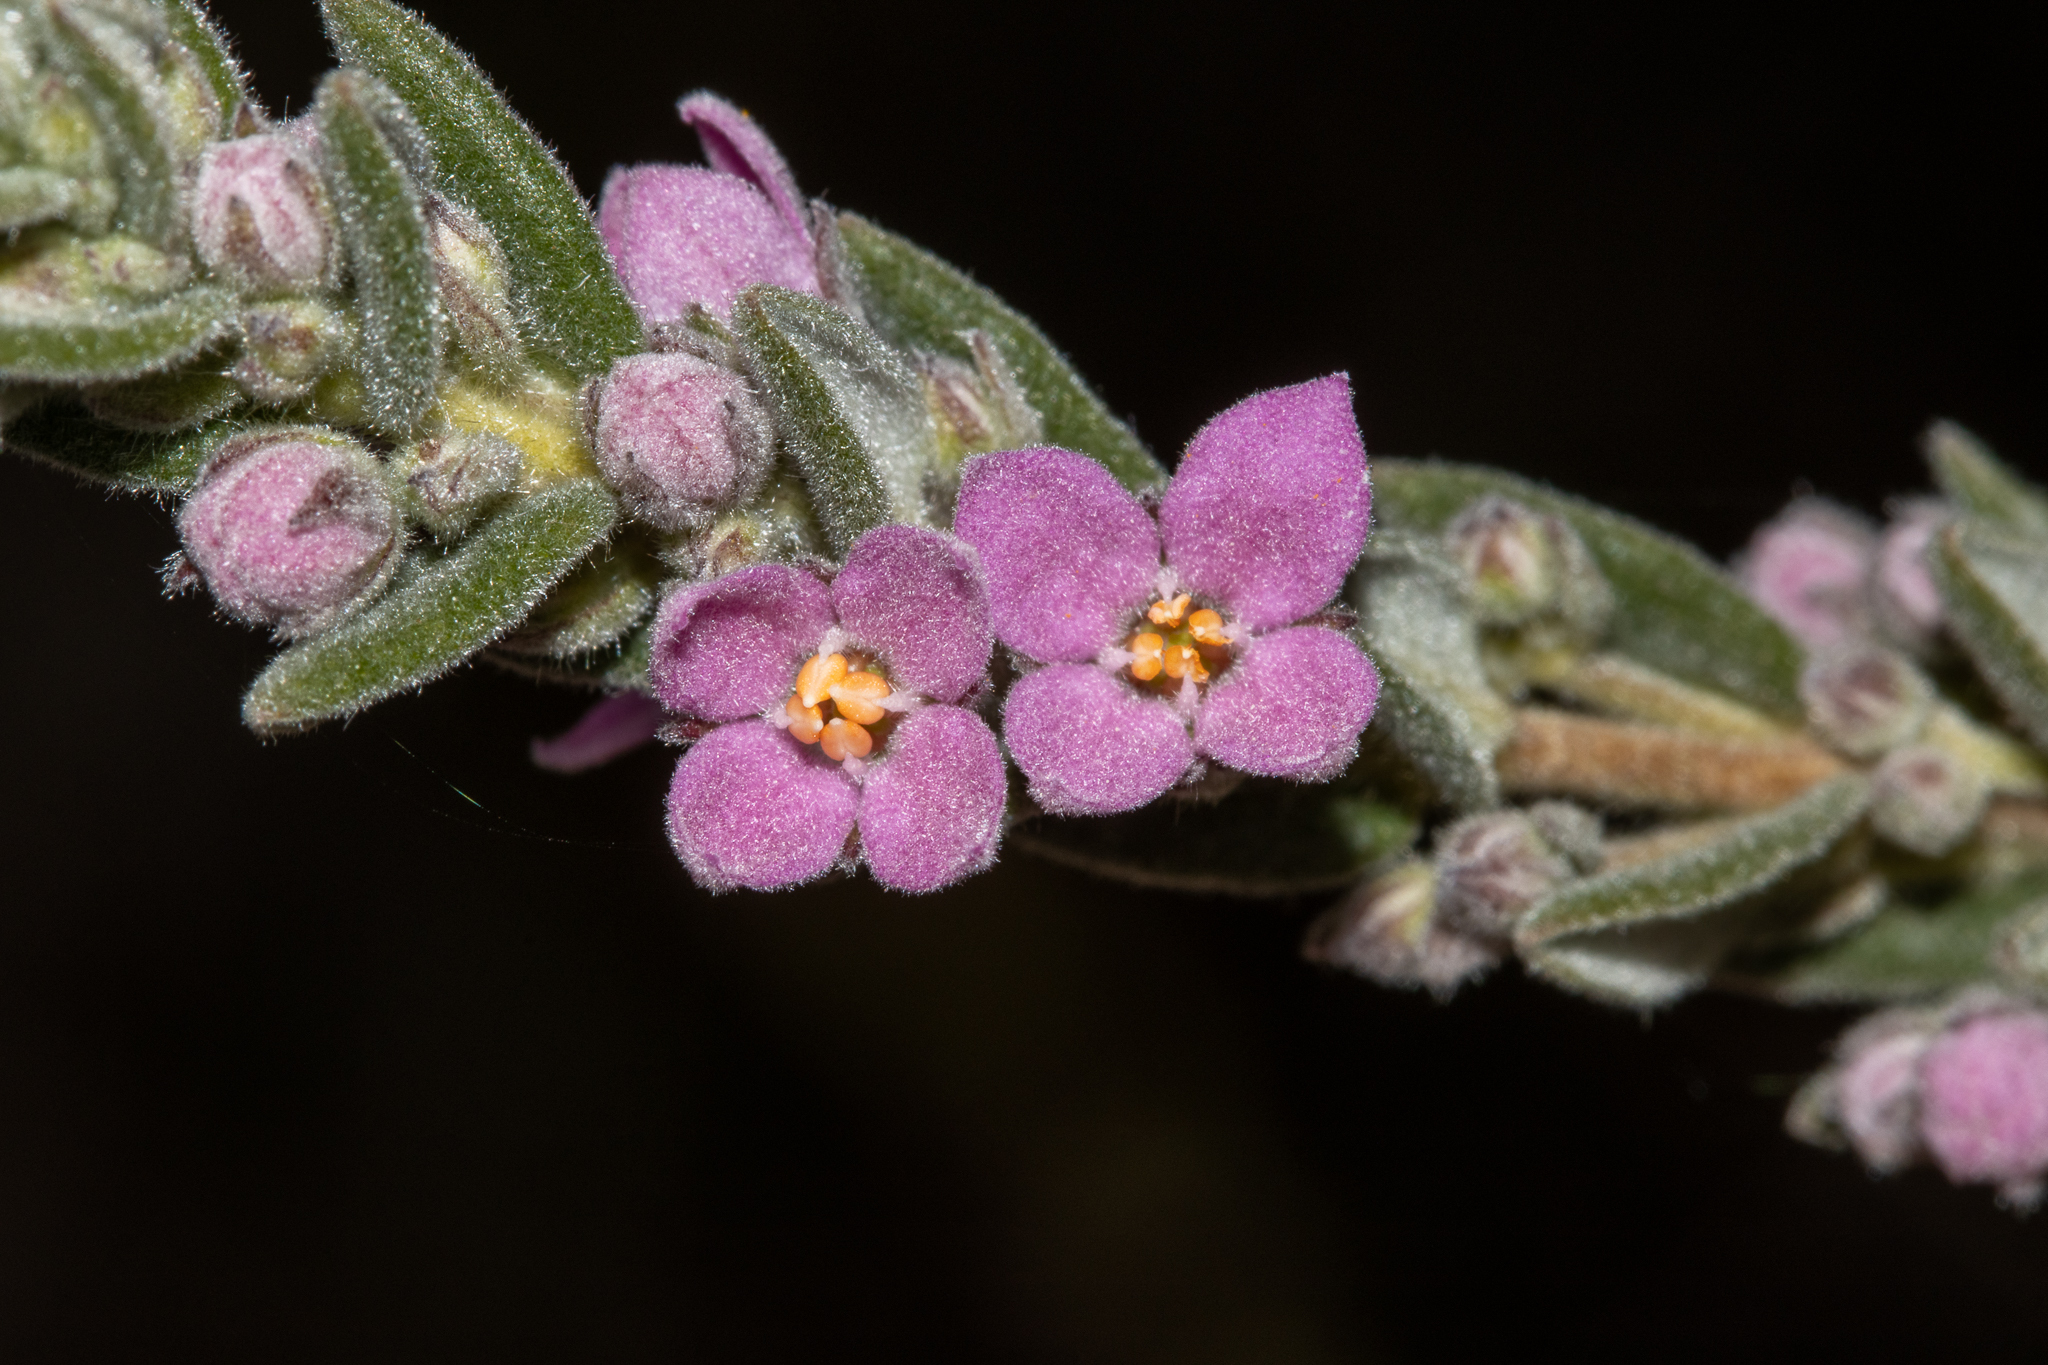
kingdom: Plantae
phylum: Tracheophyta
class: Magnoliopsida
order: Sapindales
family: Rutaceae
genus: Zieria
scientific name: Zieria veronicea
